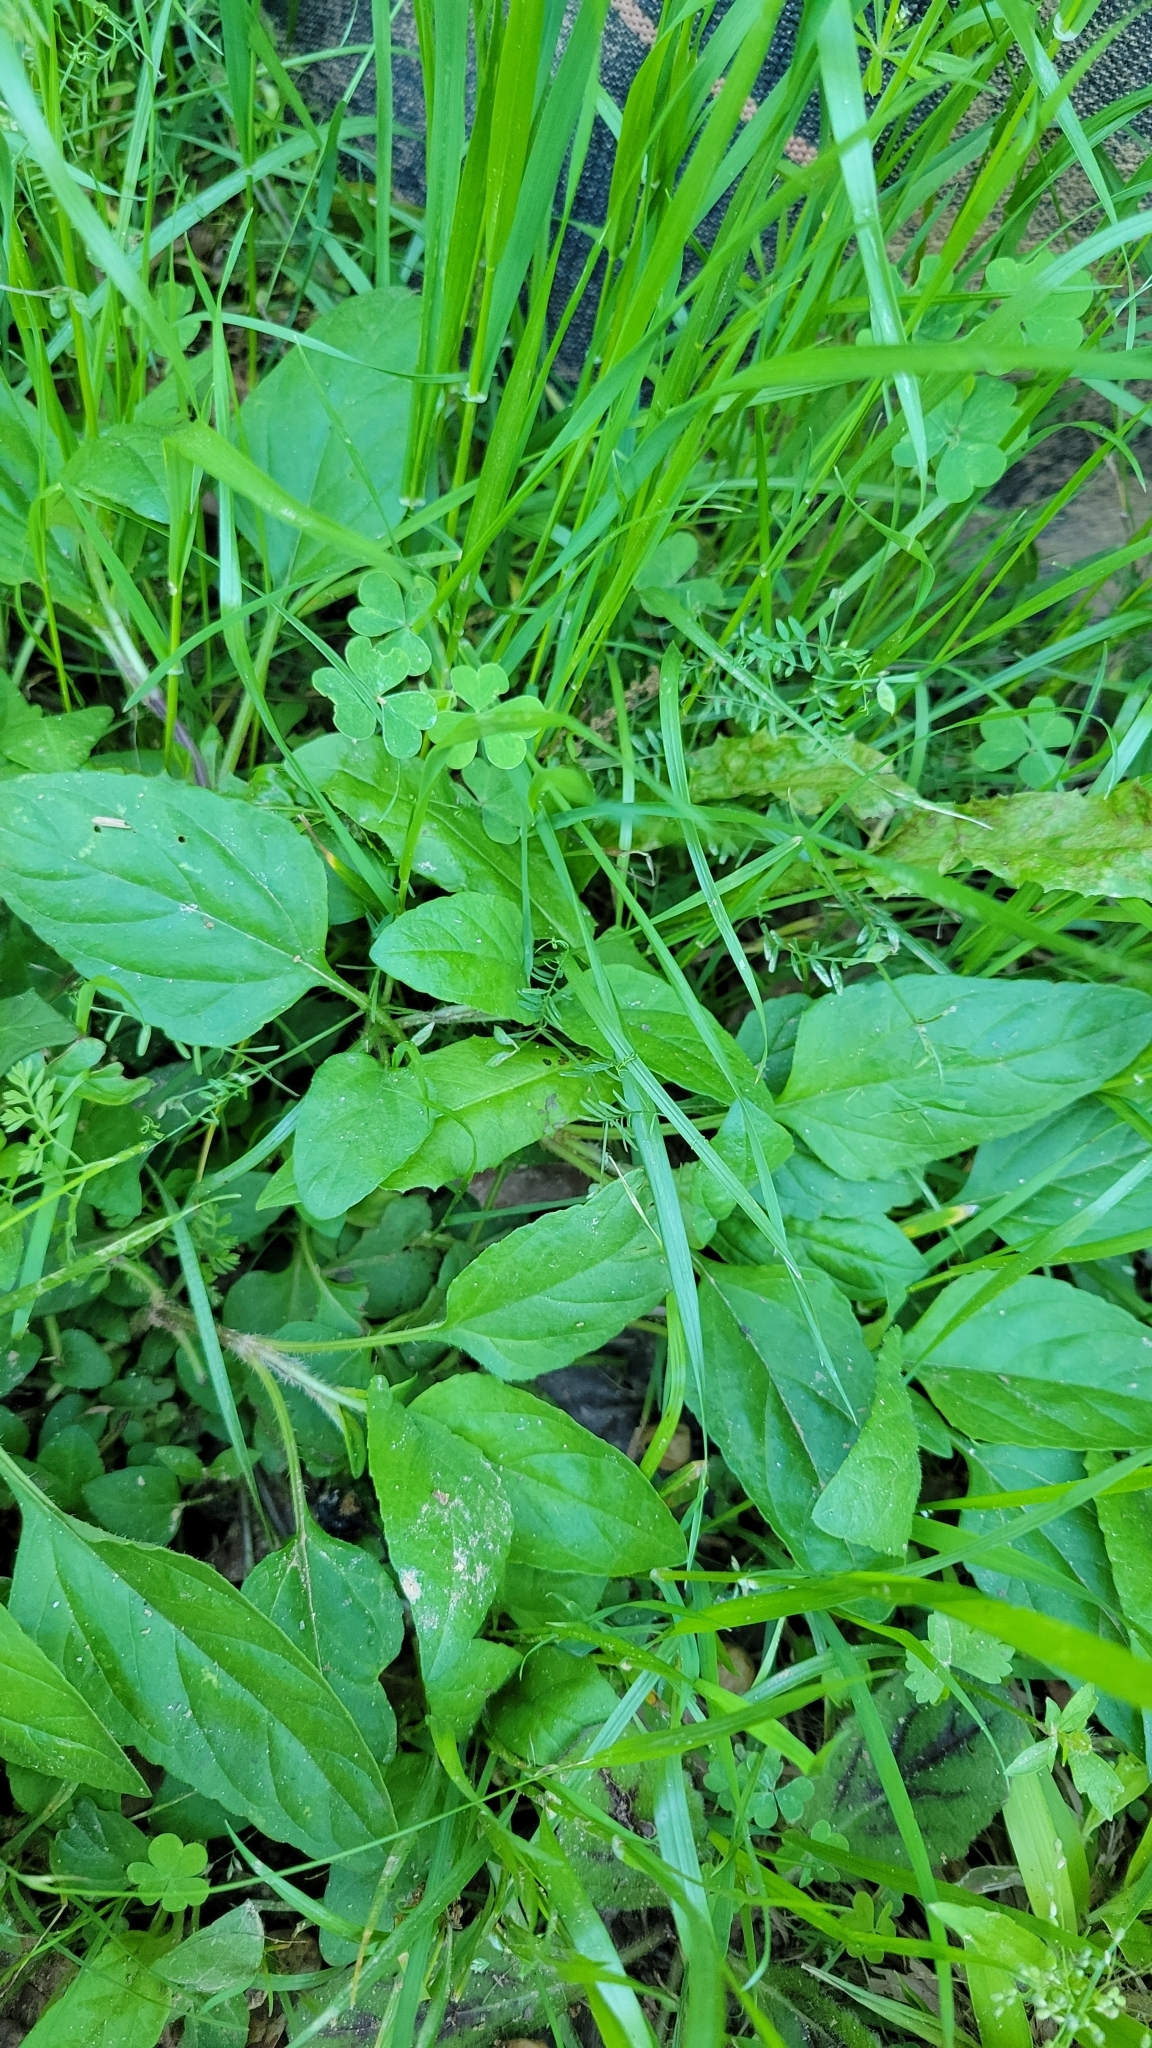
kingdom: Plantae
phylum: Tracheophyta
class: Magnoliopsida
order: Lamiales
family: Lamiaceae
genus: Prunella
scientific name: Prunella vulgaris
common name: Heal-all
